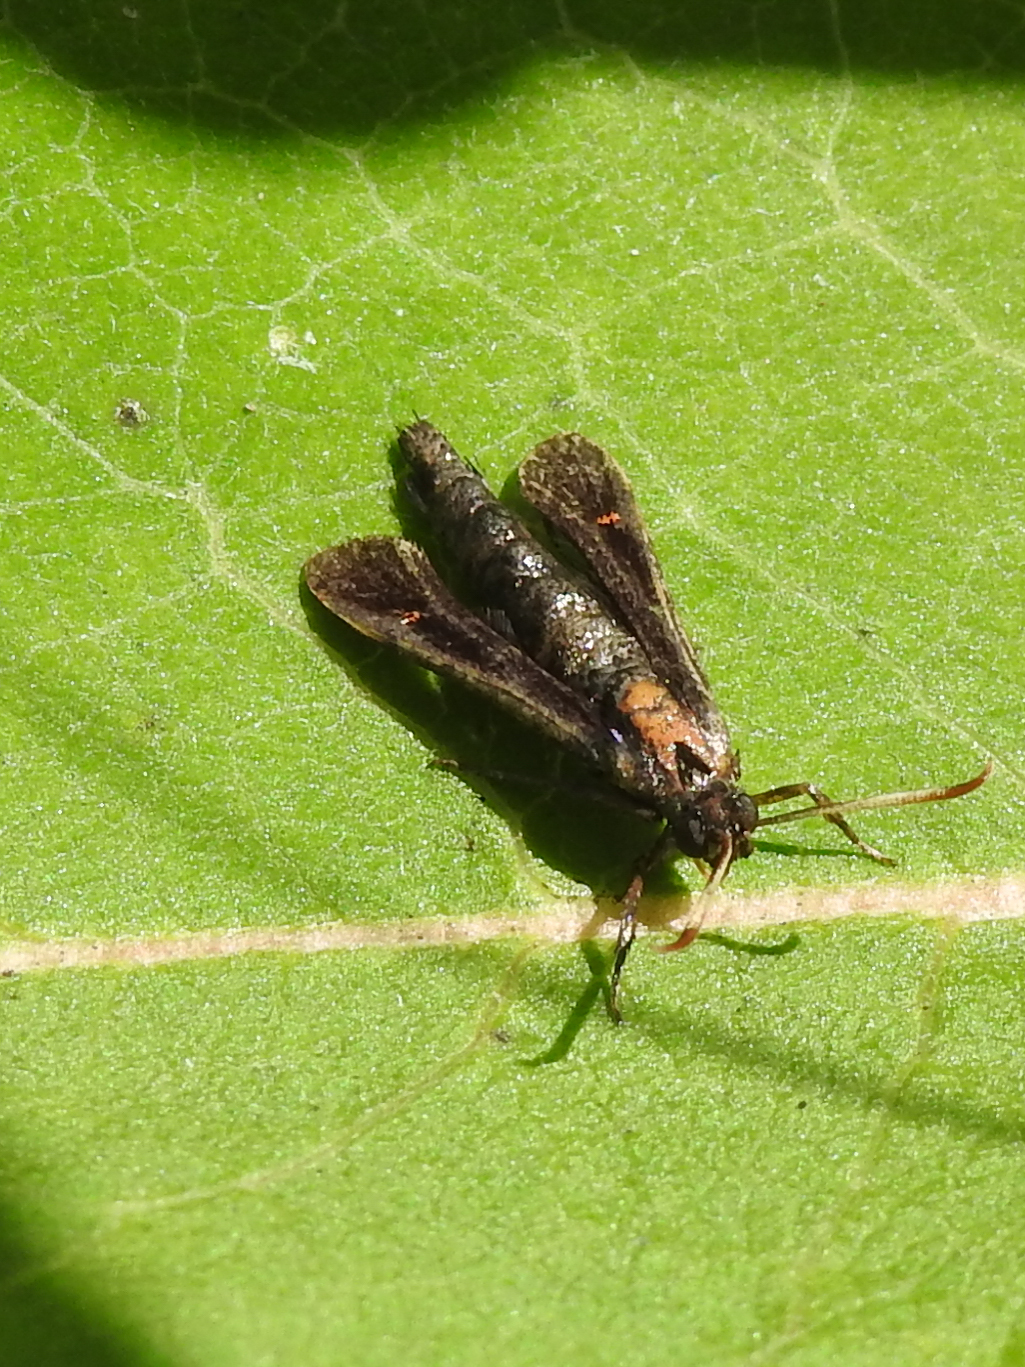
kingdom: Animalia
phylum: Arthropoda
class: Insecta
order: Lepidoptera
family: Sesiidae
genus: Albuna
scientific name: Albuna fraxini
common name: Virginia creeper clearwing
